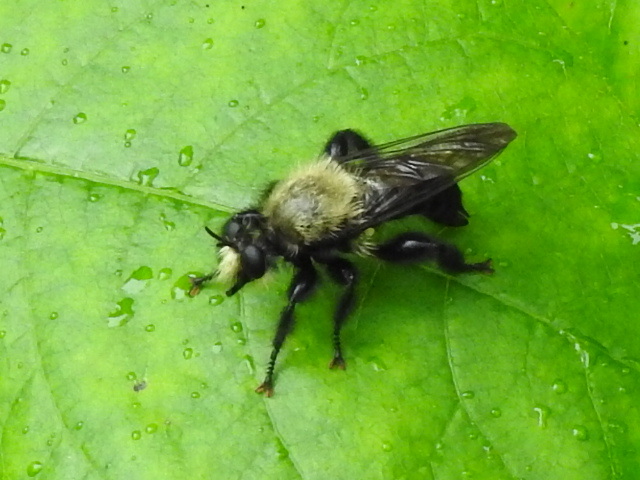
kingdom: Animalia
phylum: Arthropoda
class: Insecta
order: Diptera
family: Asilidae
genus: Laphria
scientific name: Laphria flavicollis
